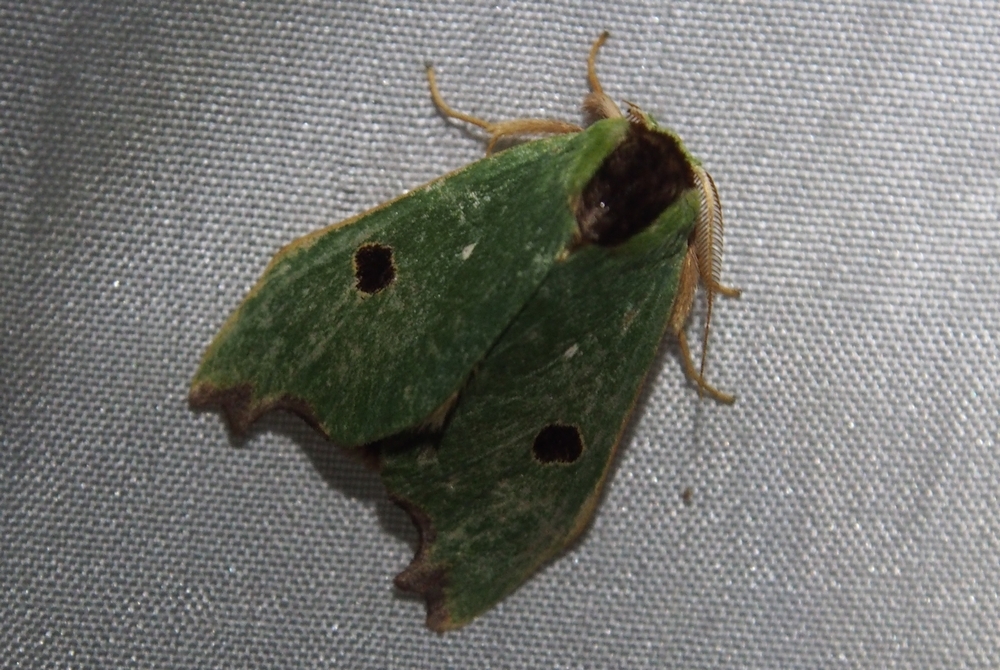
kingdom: Animalia
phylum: Arthropoda
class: Insecta
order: Lepidoptera
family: Notodontidae
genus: Rosema
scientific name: Rosema deolis
